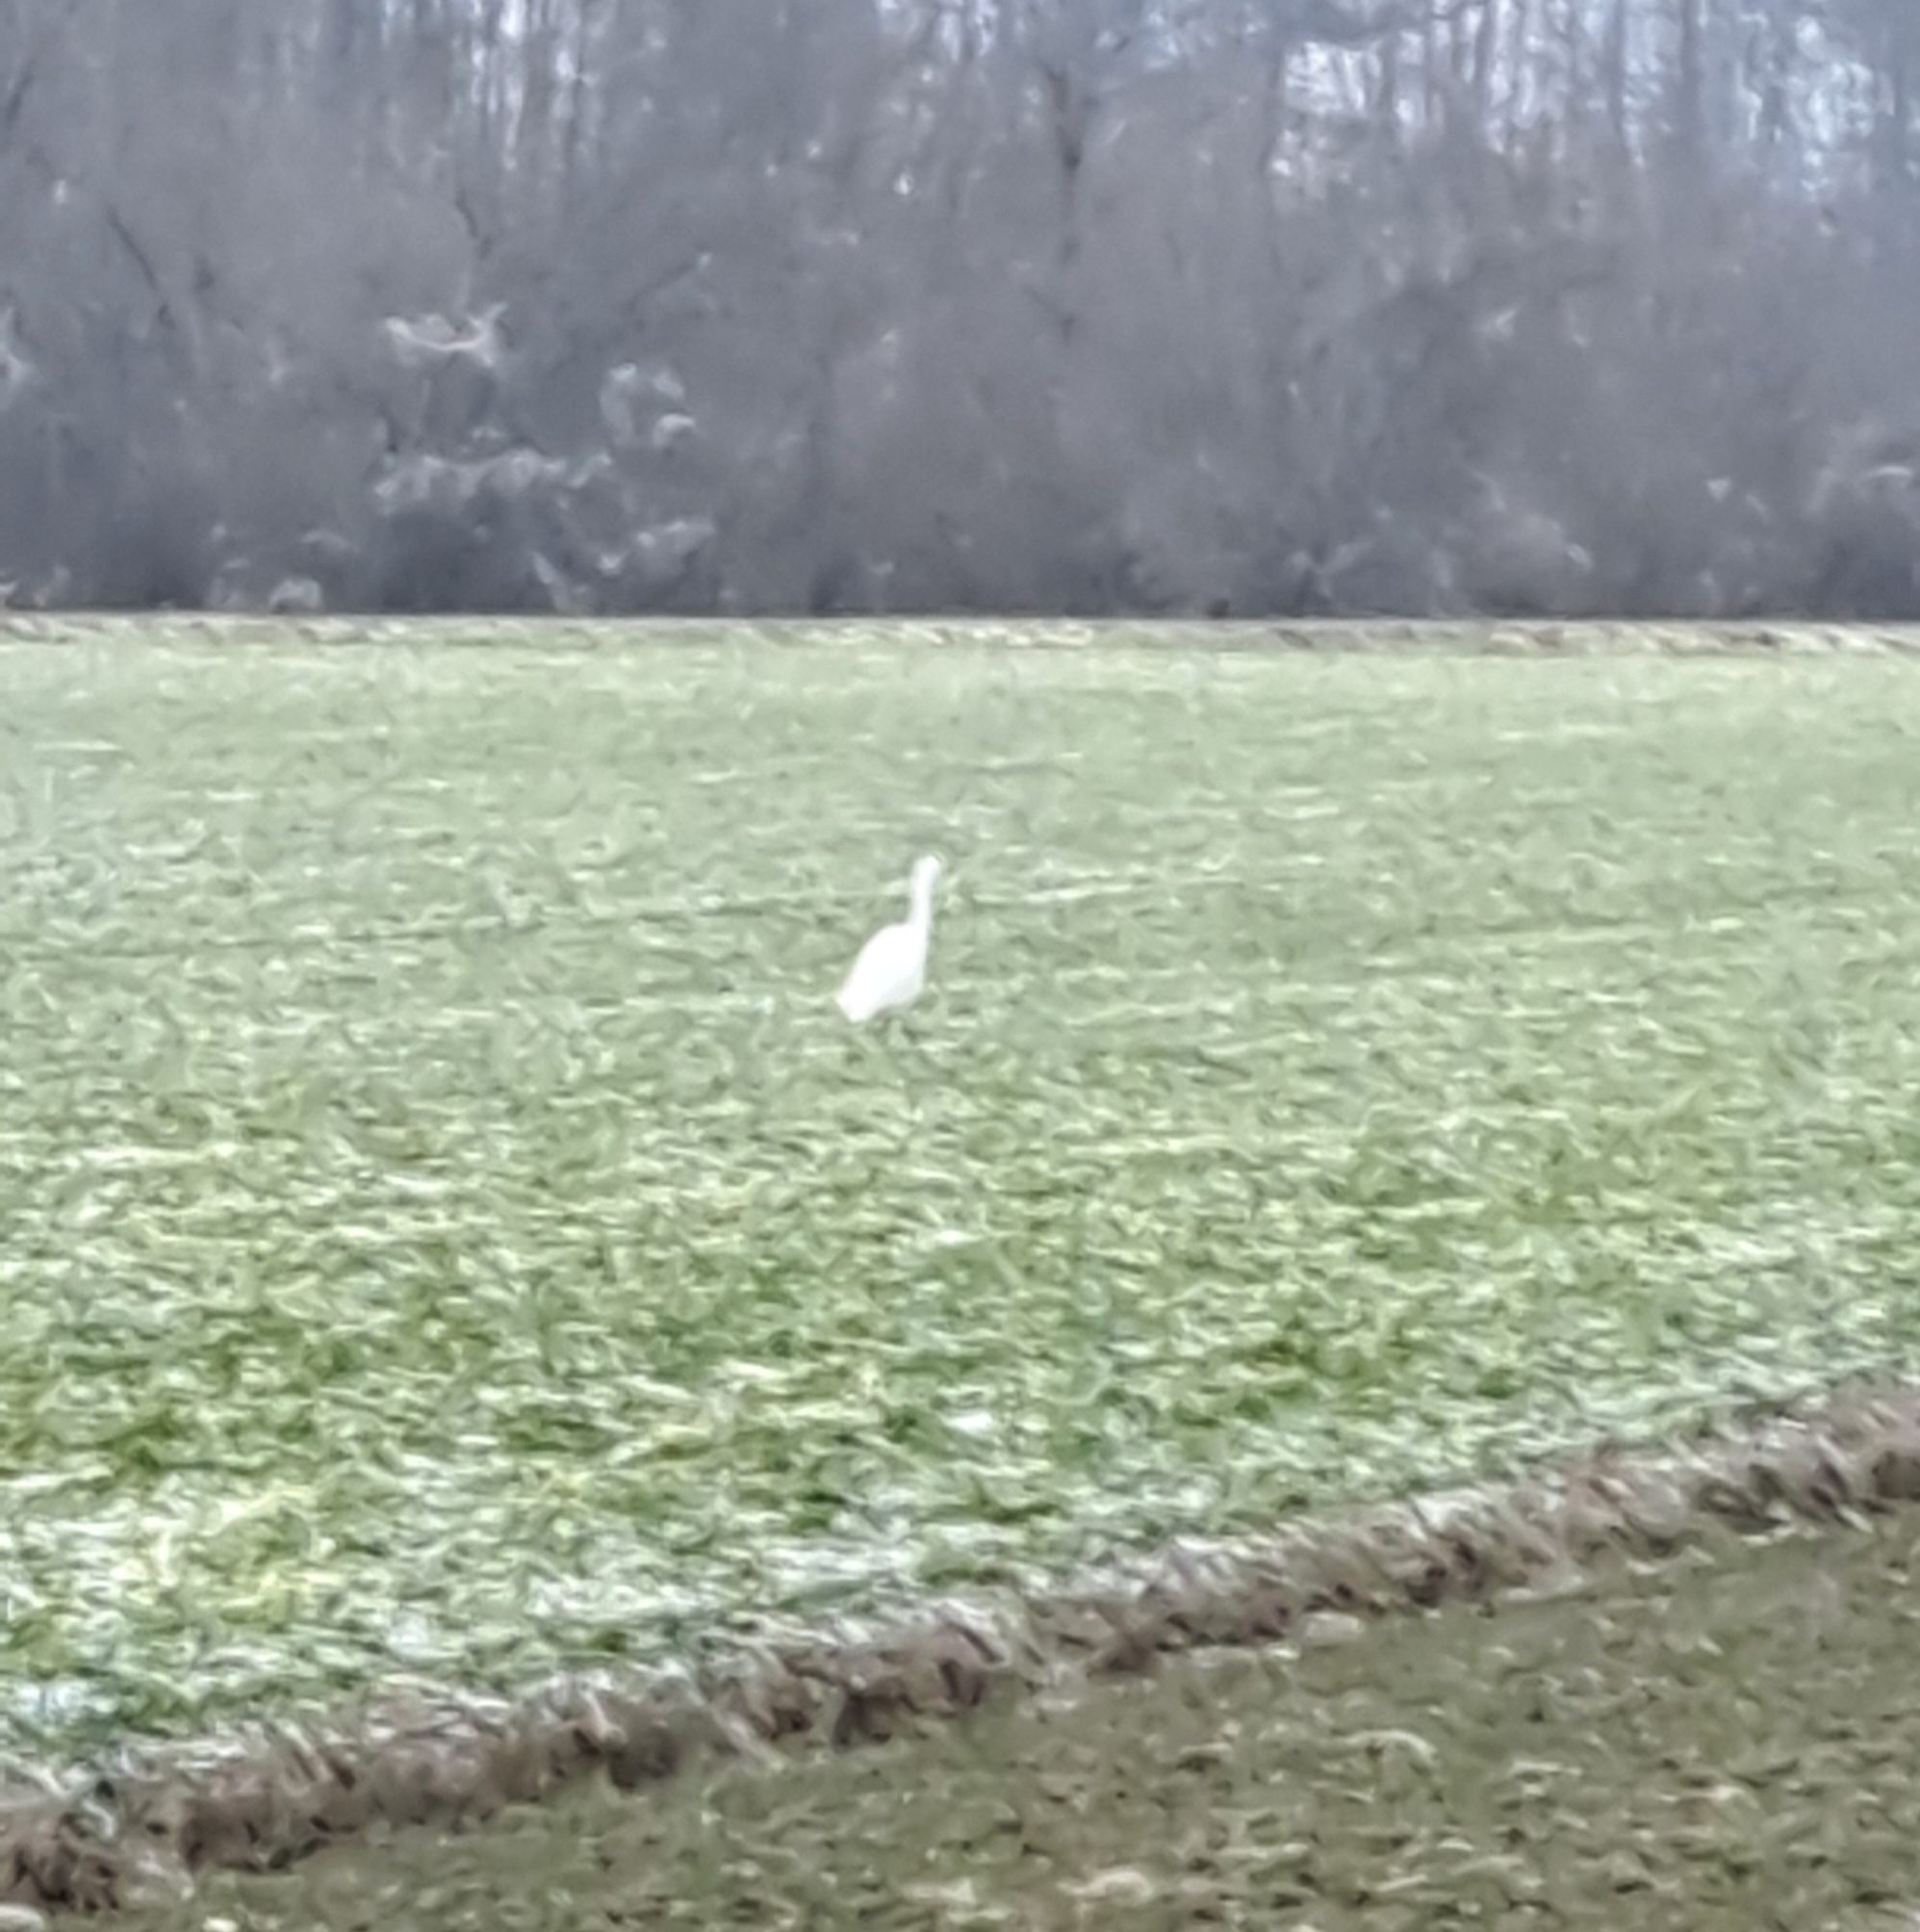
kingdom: Animalia
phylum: Chordata
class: Aves
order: Pelecaniformes
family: Ardeidae
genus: Ardea
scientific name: Ardea alba
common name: Great egret
